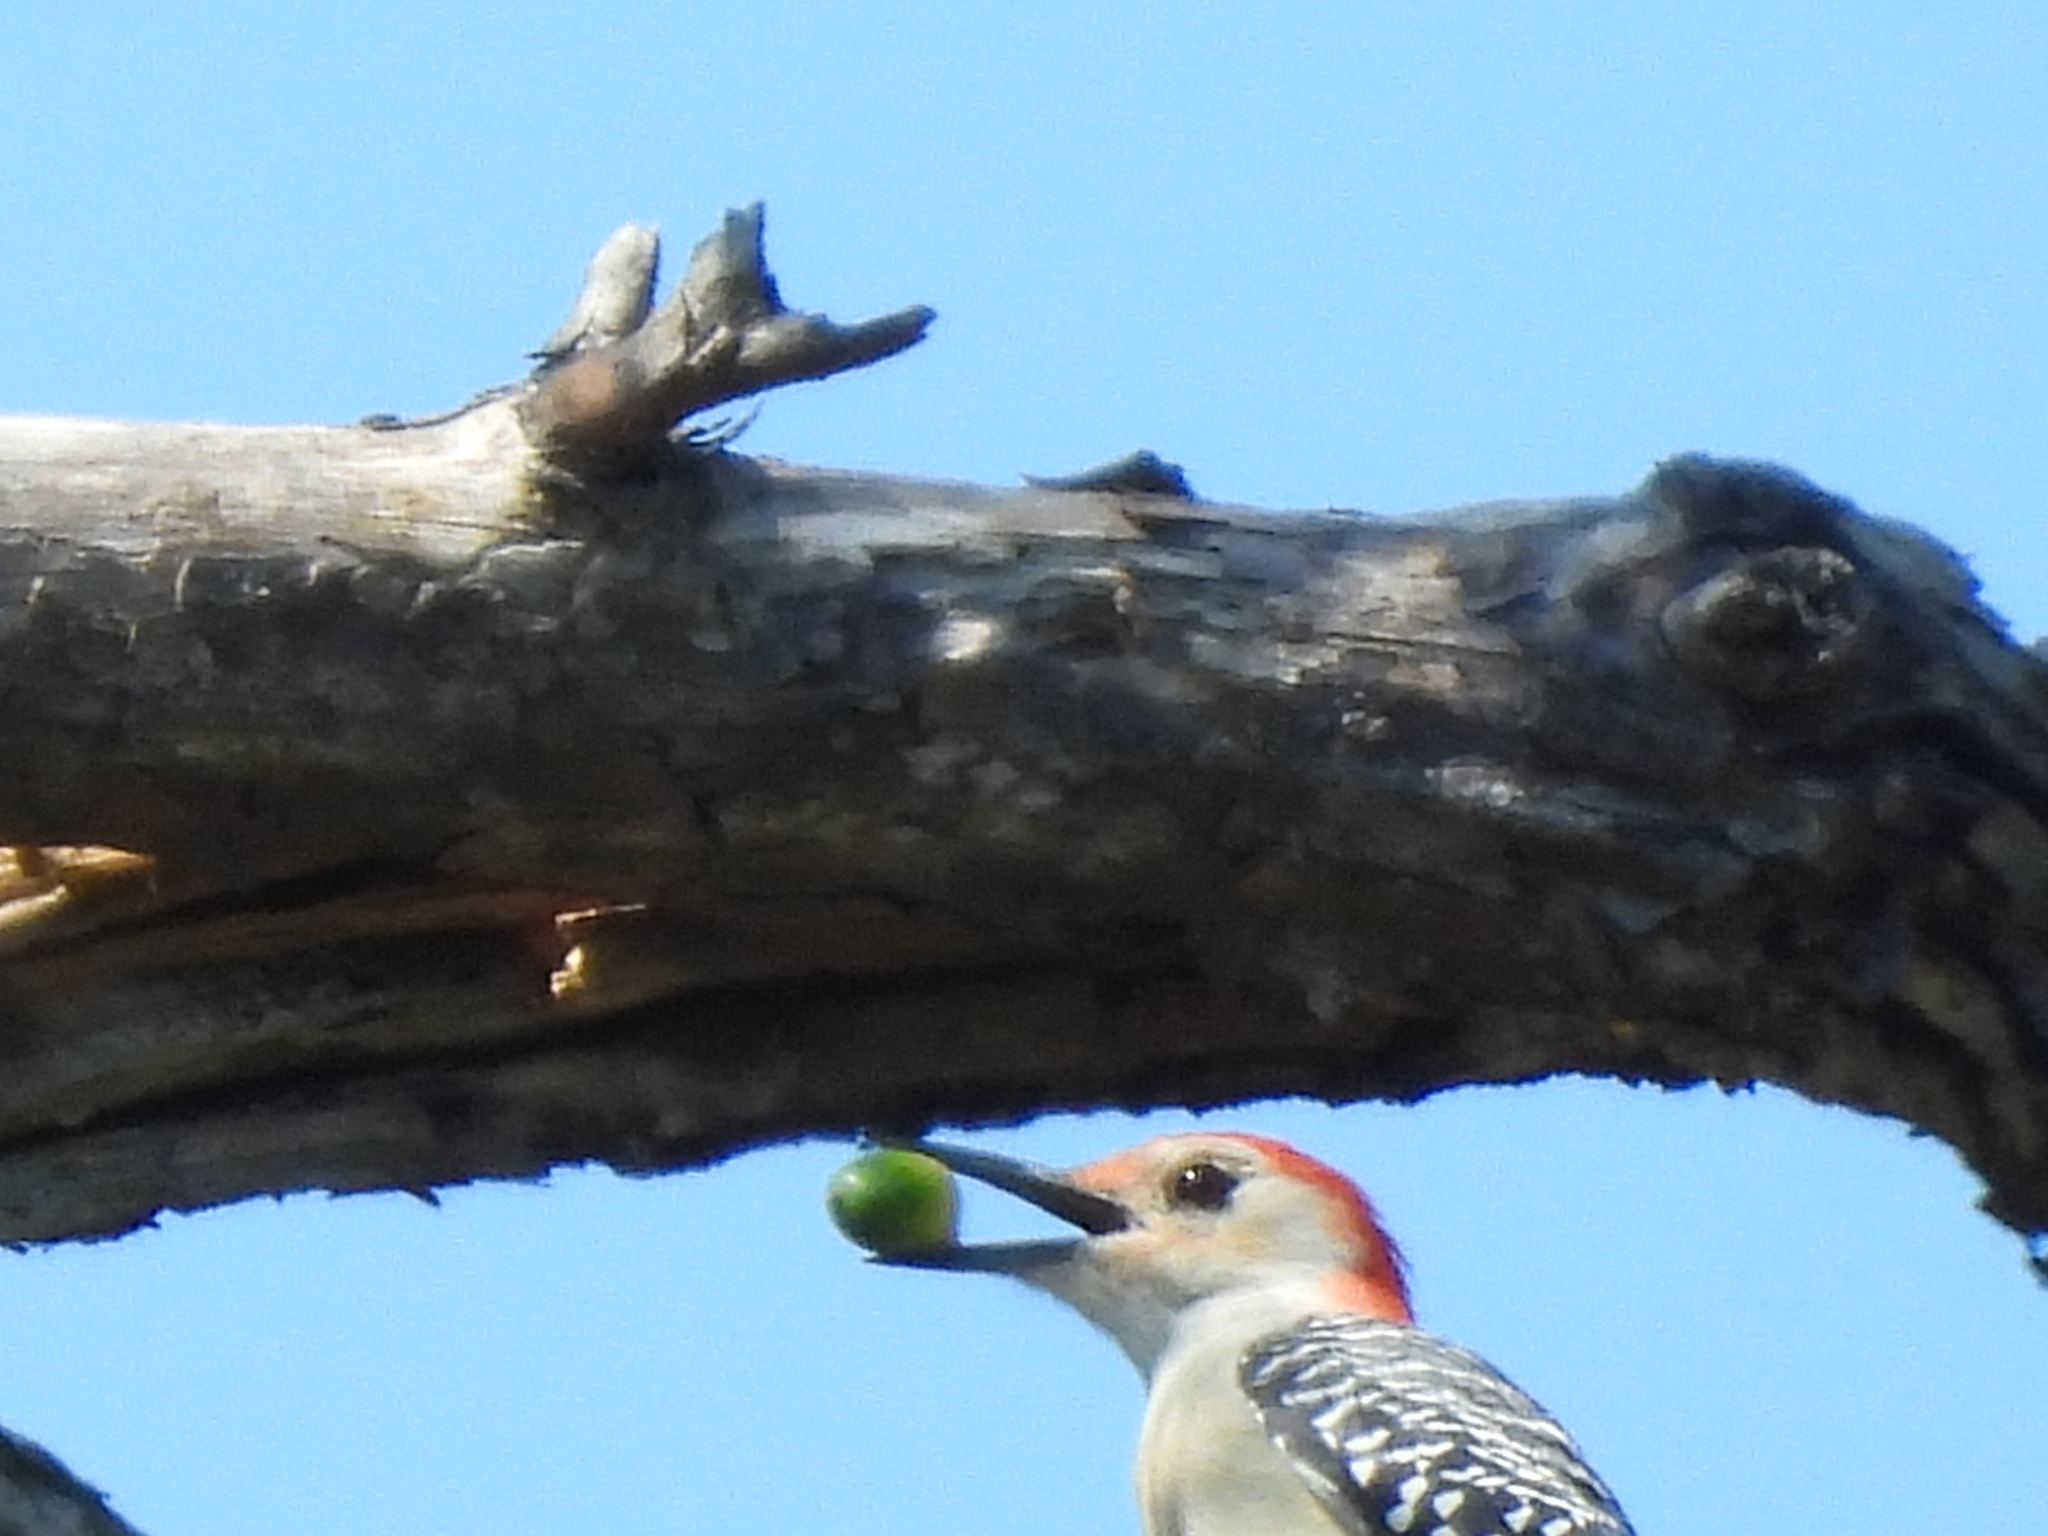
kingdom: Animalia
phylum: Chordata
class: Aves
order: Piciformes
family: Picidae
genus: Melanerpes
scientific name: Melanerpes carolinus
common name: Red-bellied woodpecker
